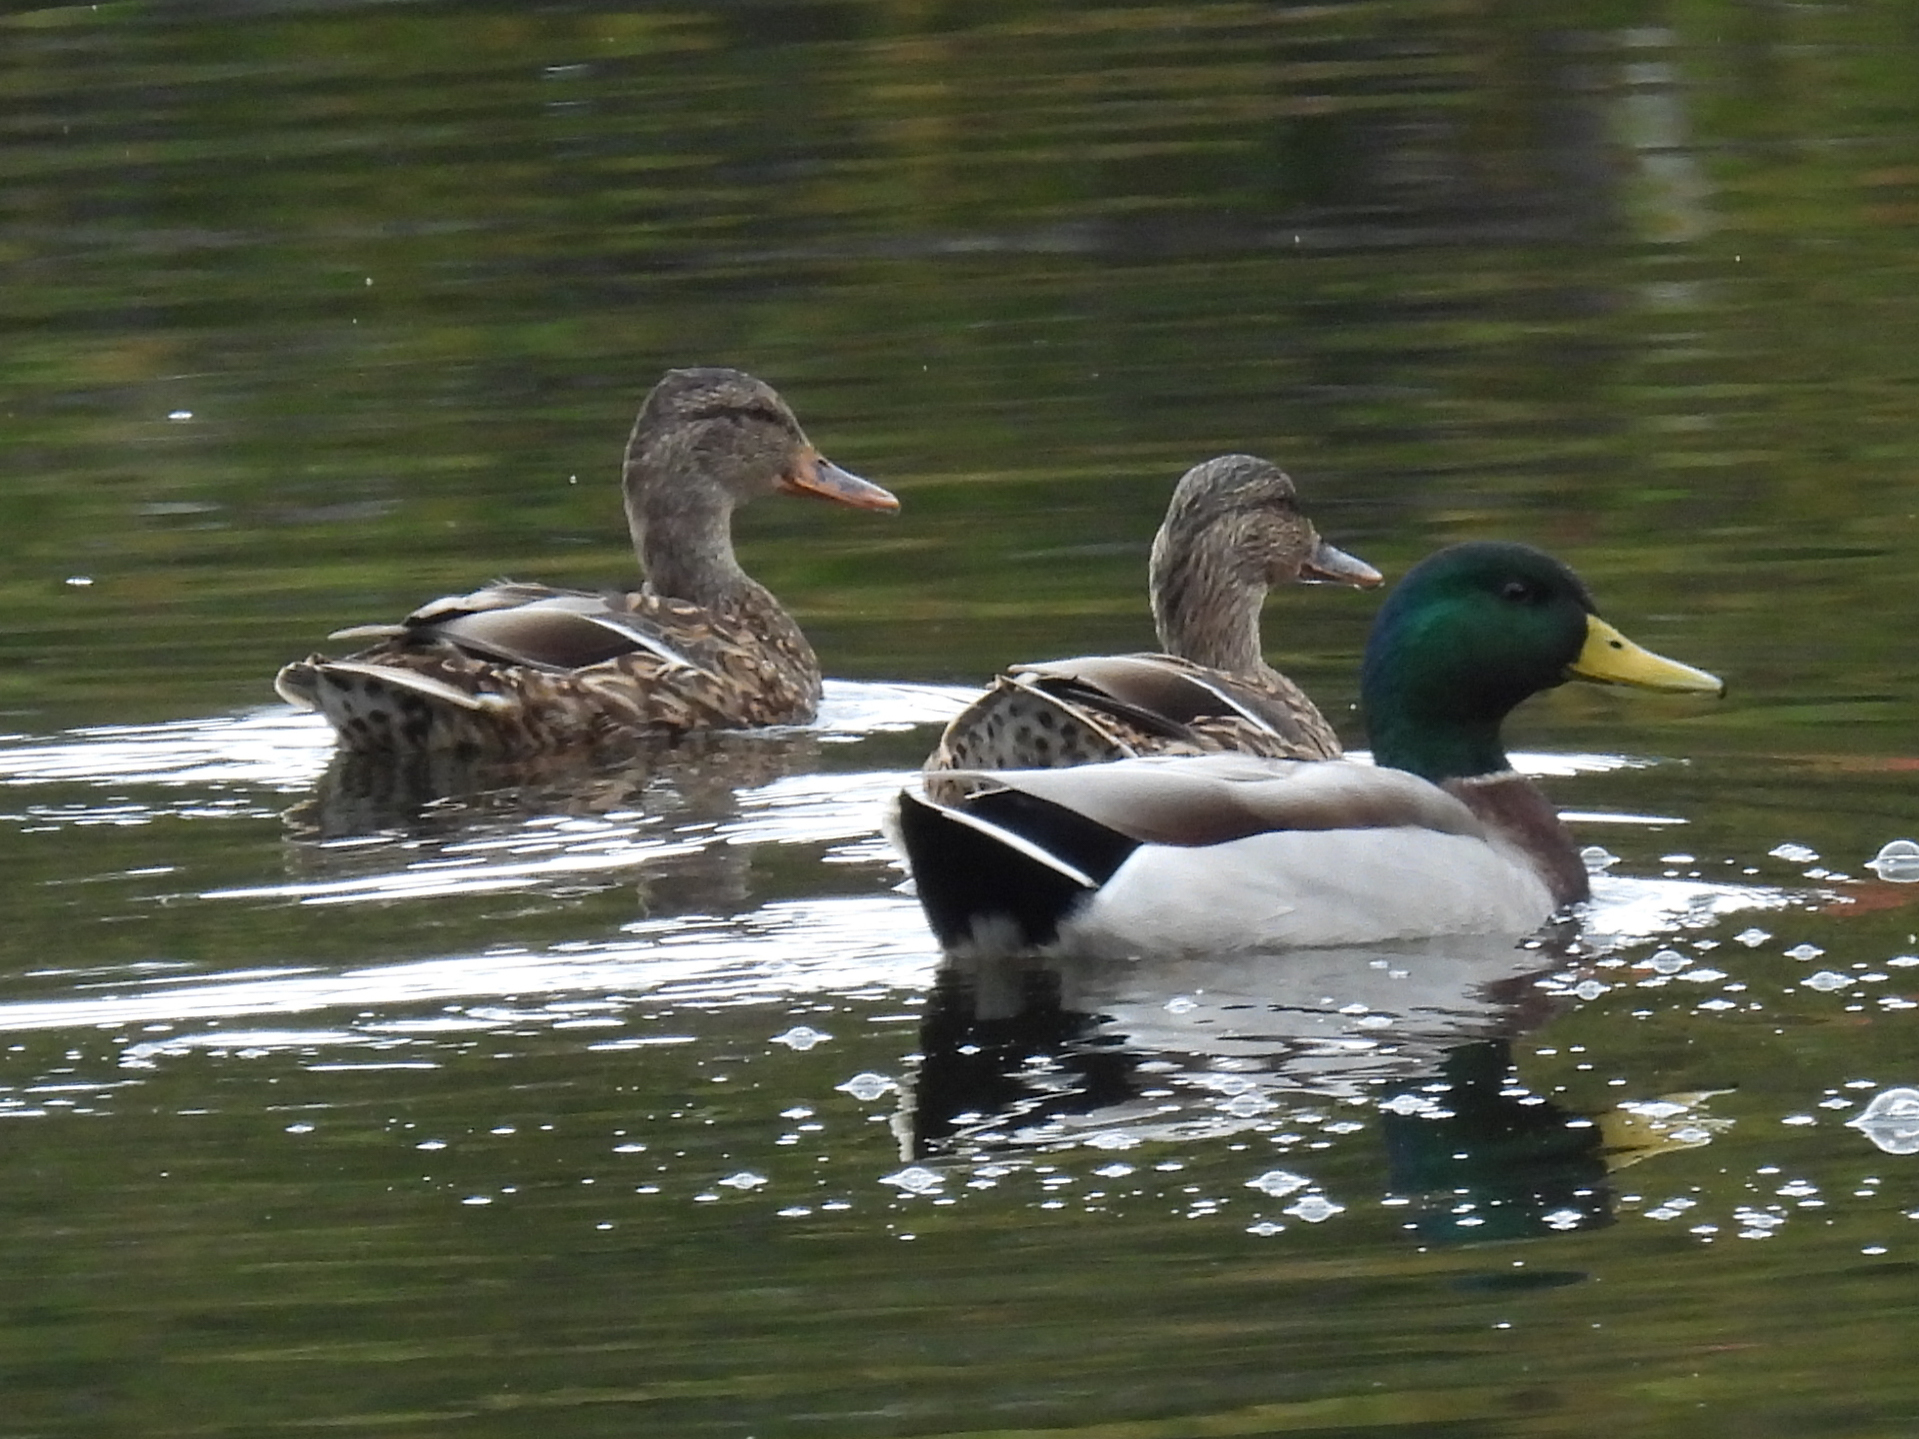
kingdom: Animalia
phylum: Chordata
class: Aves
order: Anseriformes
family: Anatidae
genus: Anas
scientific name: Anas platyrhynchos
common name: Mallard
